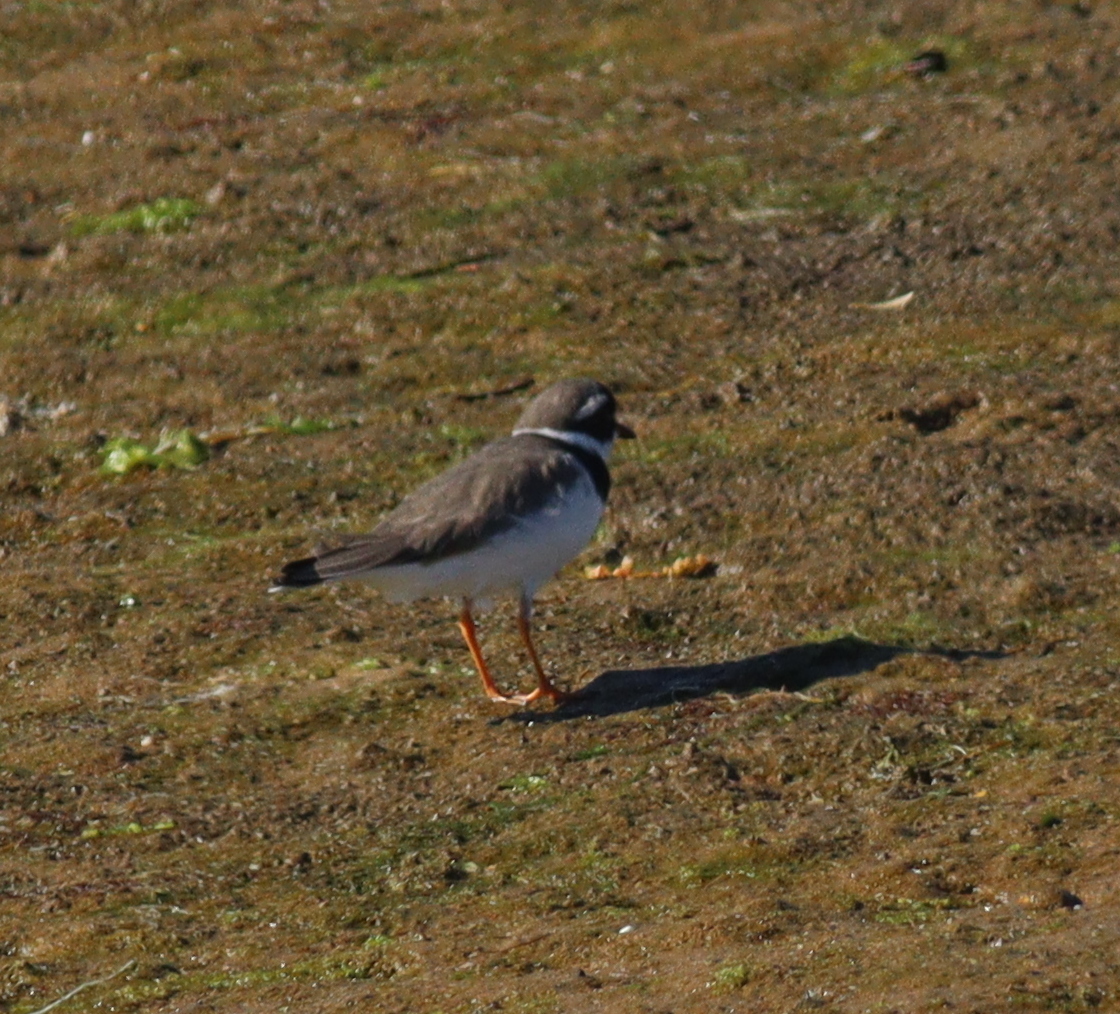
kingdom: Animalia
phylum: Chordata
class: Aves
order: Charadriiformes
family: Charadriidae
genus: Charadrius
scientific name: Charadrius hiaticula
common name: Common ringed plover
